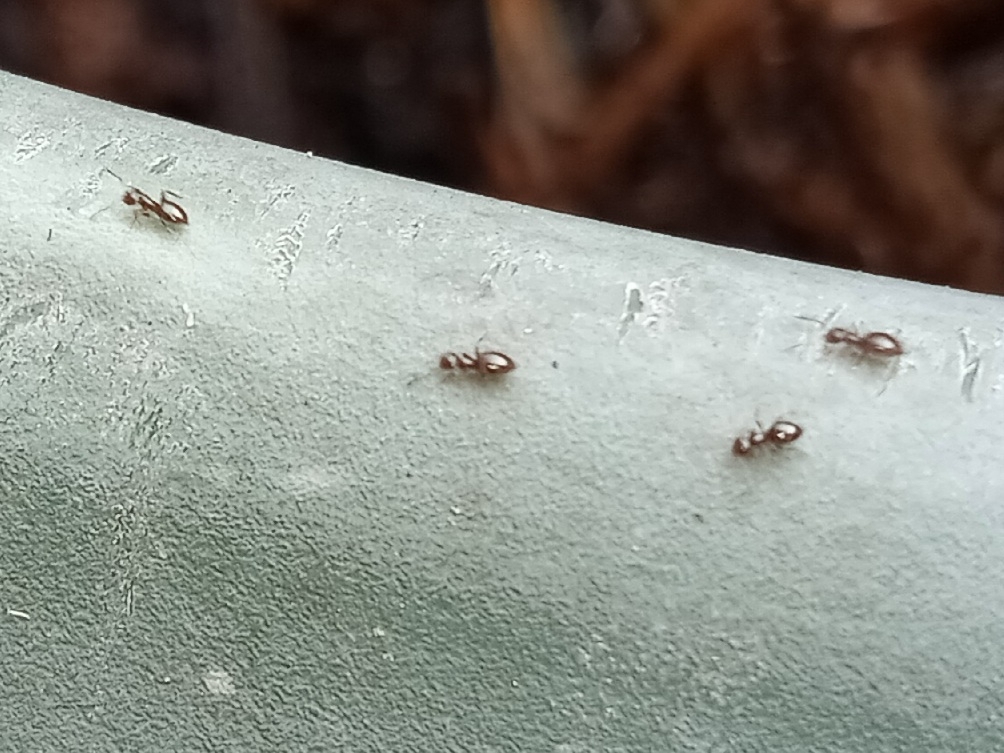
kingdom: Animalia
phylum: Arthropoda
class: Insecta
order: Hymenoptera
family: Formicidae
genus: Brachymyrmex
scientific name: Brachymyrmex patagonicus
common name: Dark rover ant
